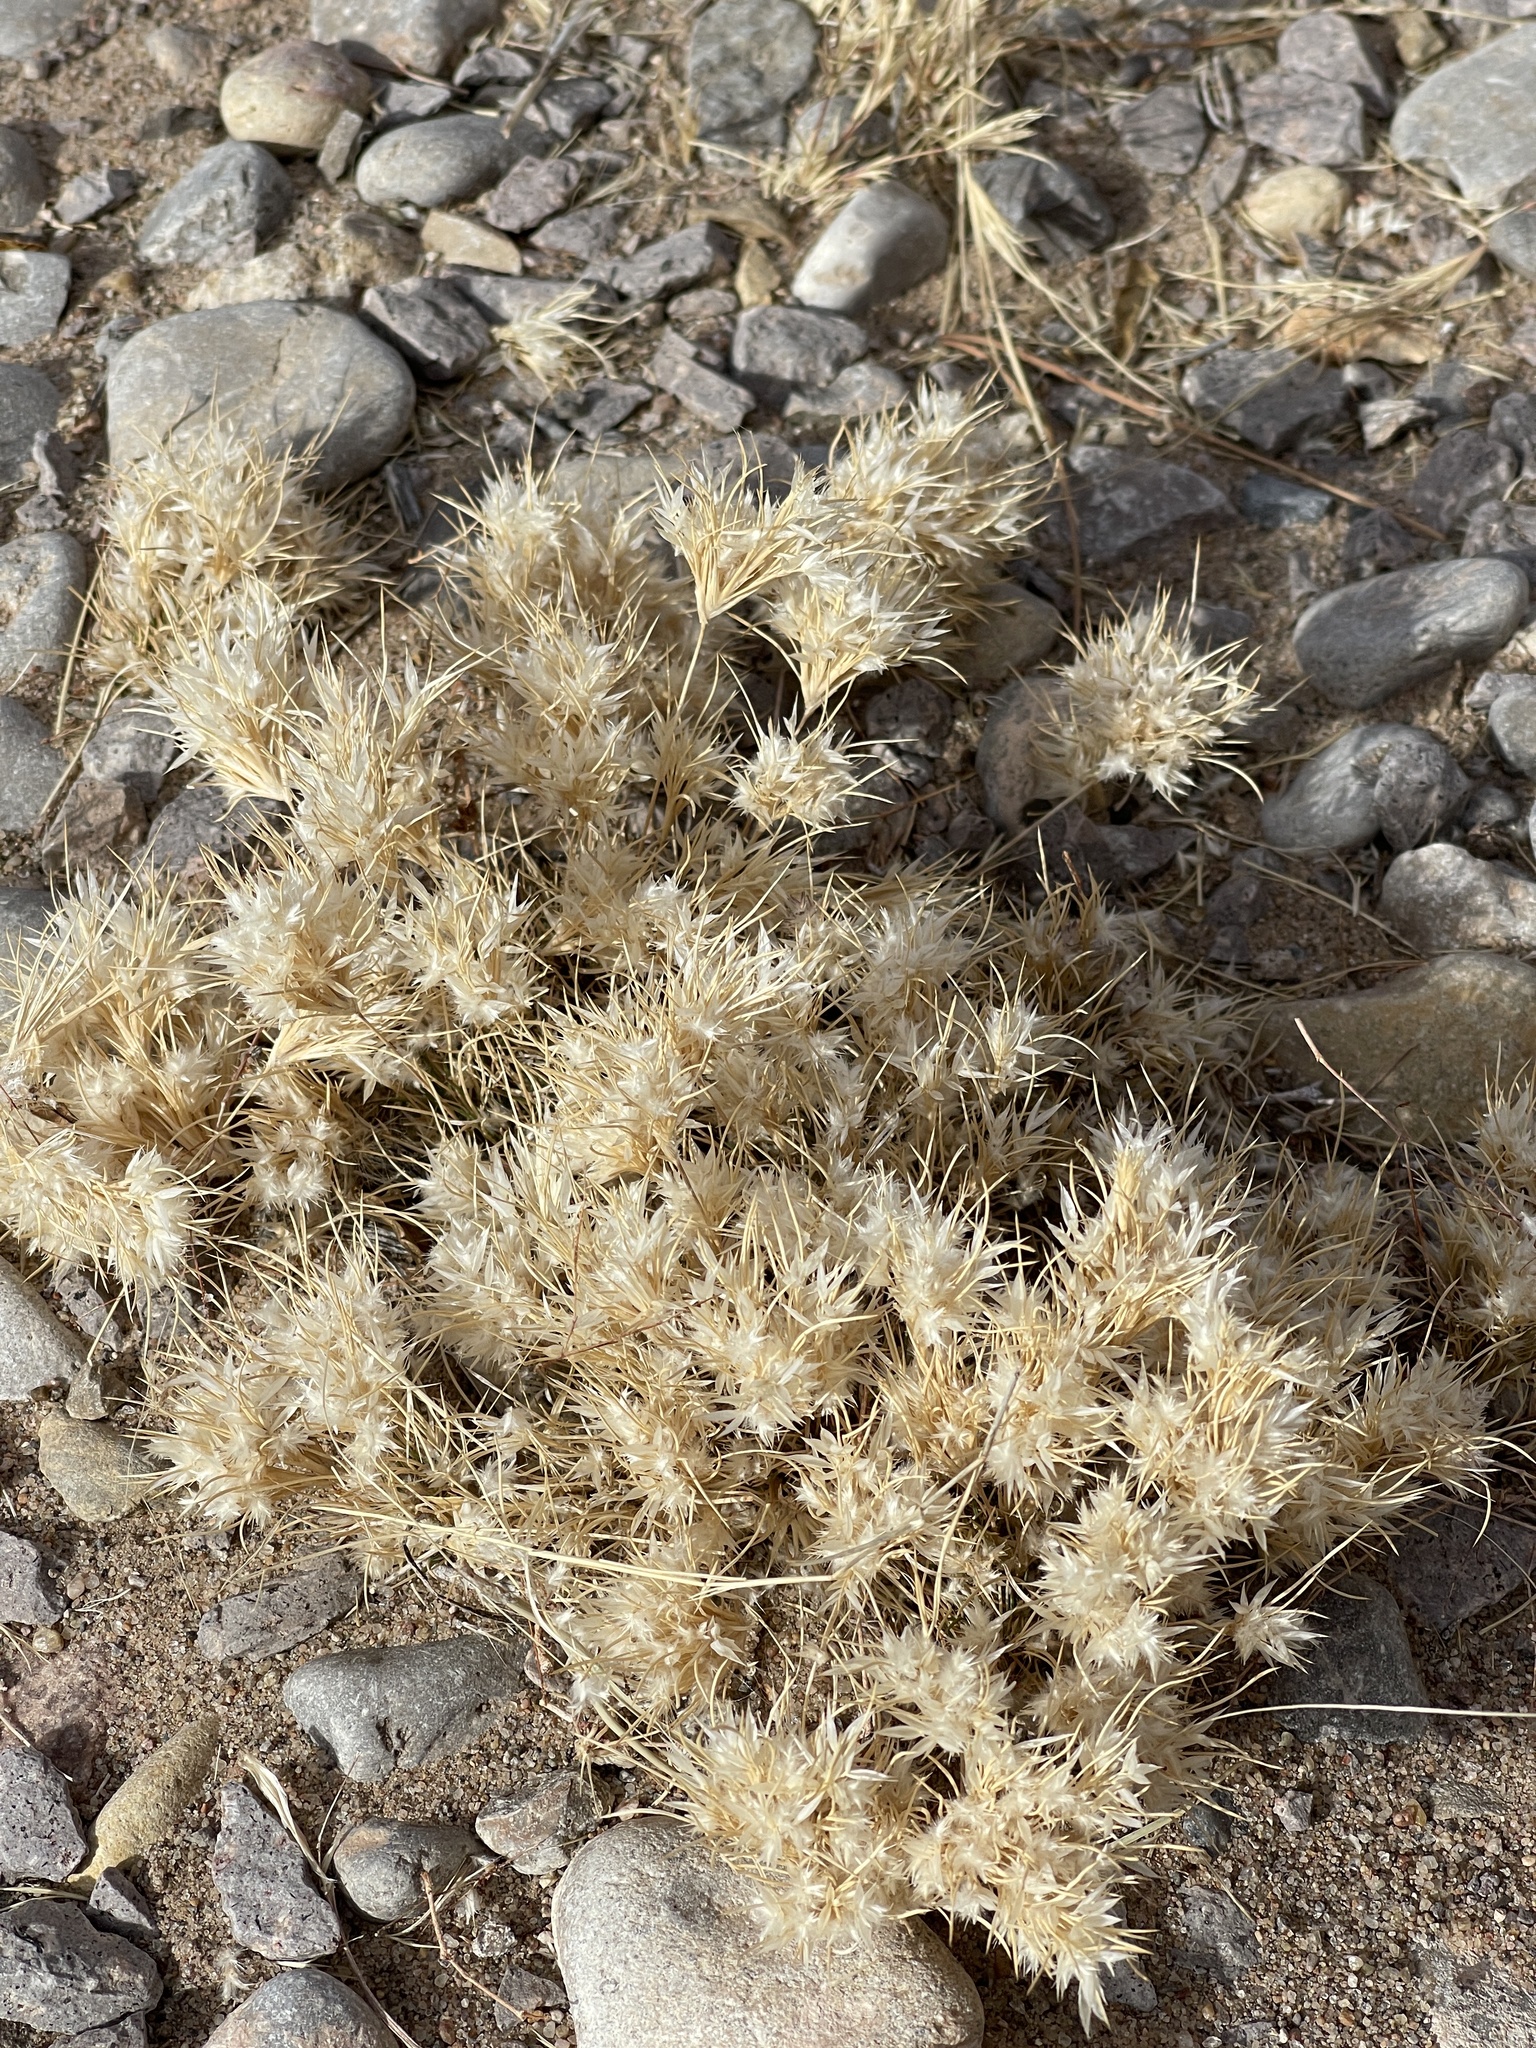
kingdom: Plantae
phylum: Tracheophyta
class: Liliopsida
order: Poales
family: Poaceae
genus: Dasyochloa
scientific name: Dasyochloa pulchella
